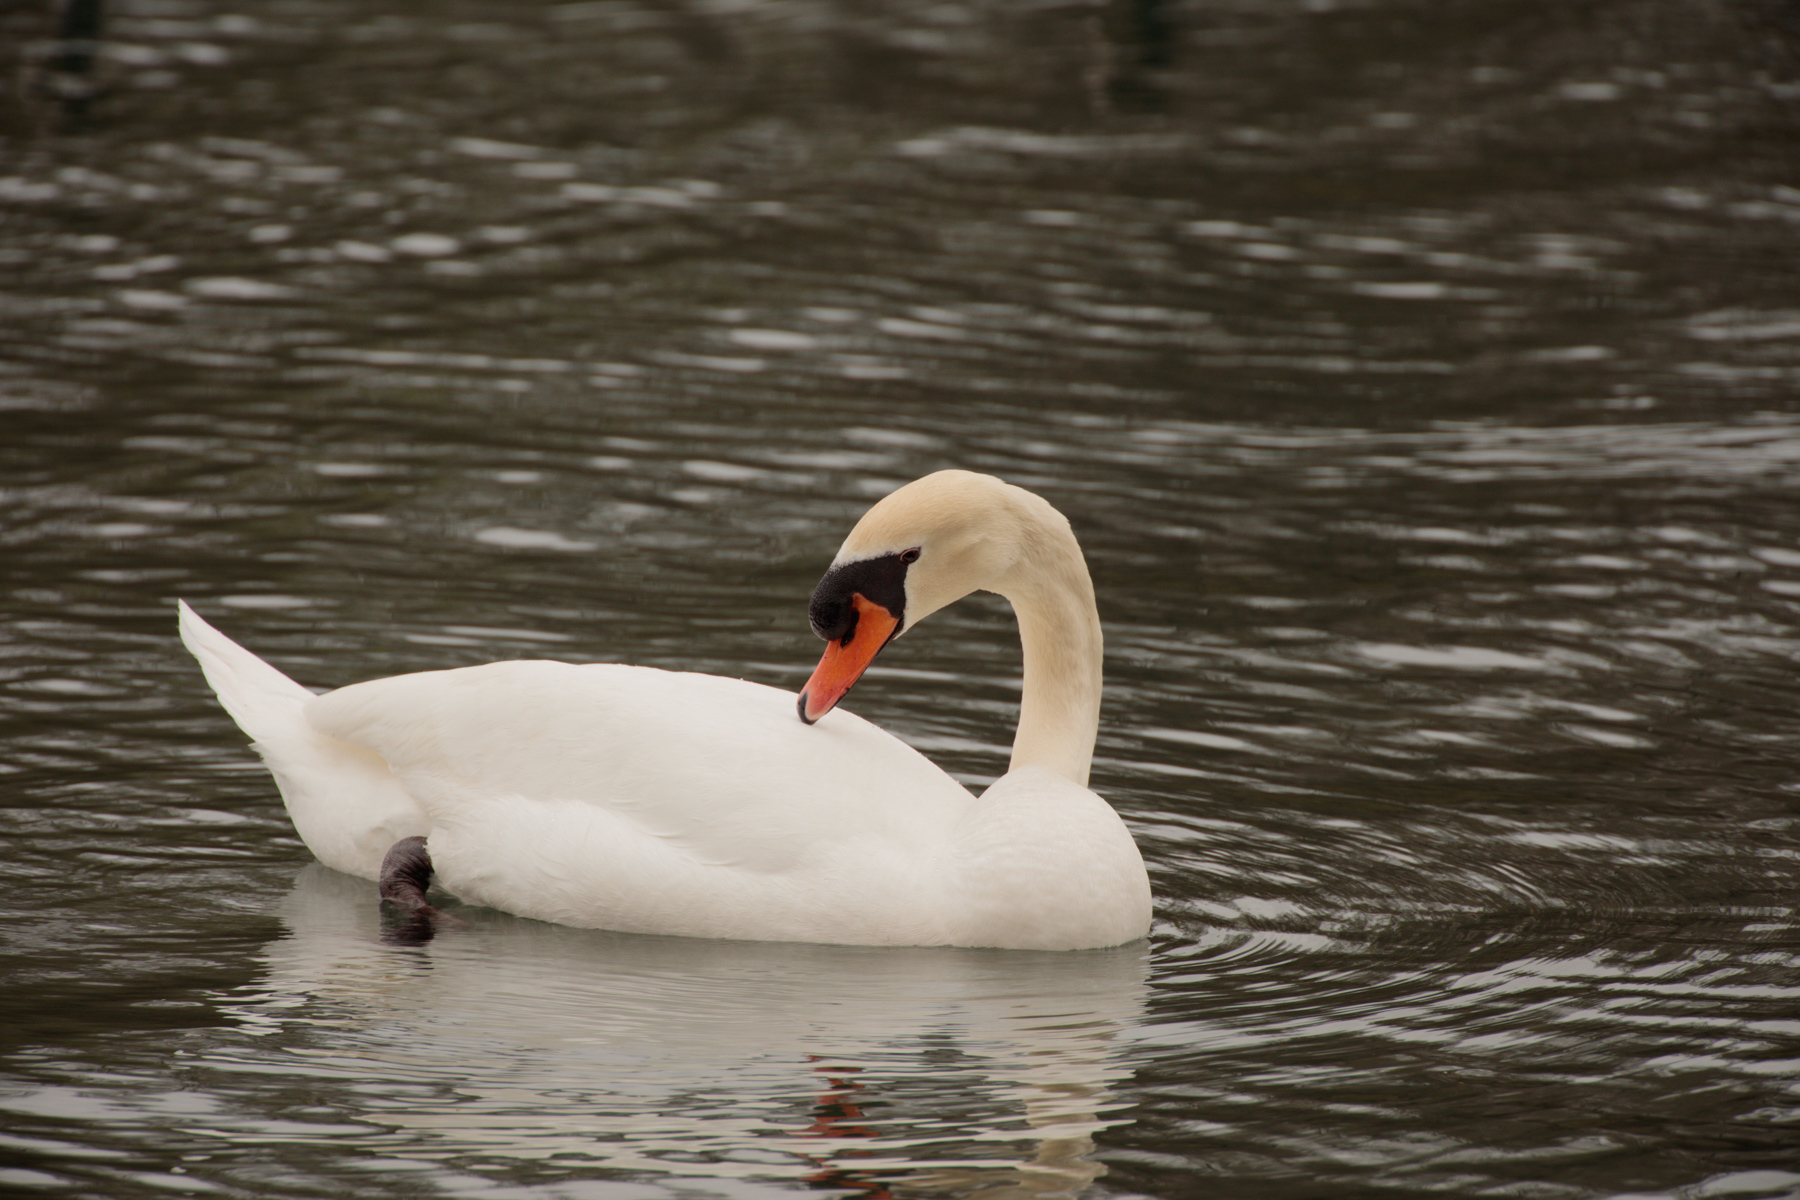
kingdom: Animalia
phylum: Chordata
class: Aves
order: Anseriformes
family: Anatidae
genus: Cygnus
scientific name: Cygnus olor
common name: Mute swan
